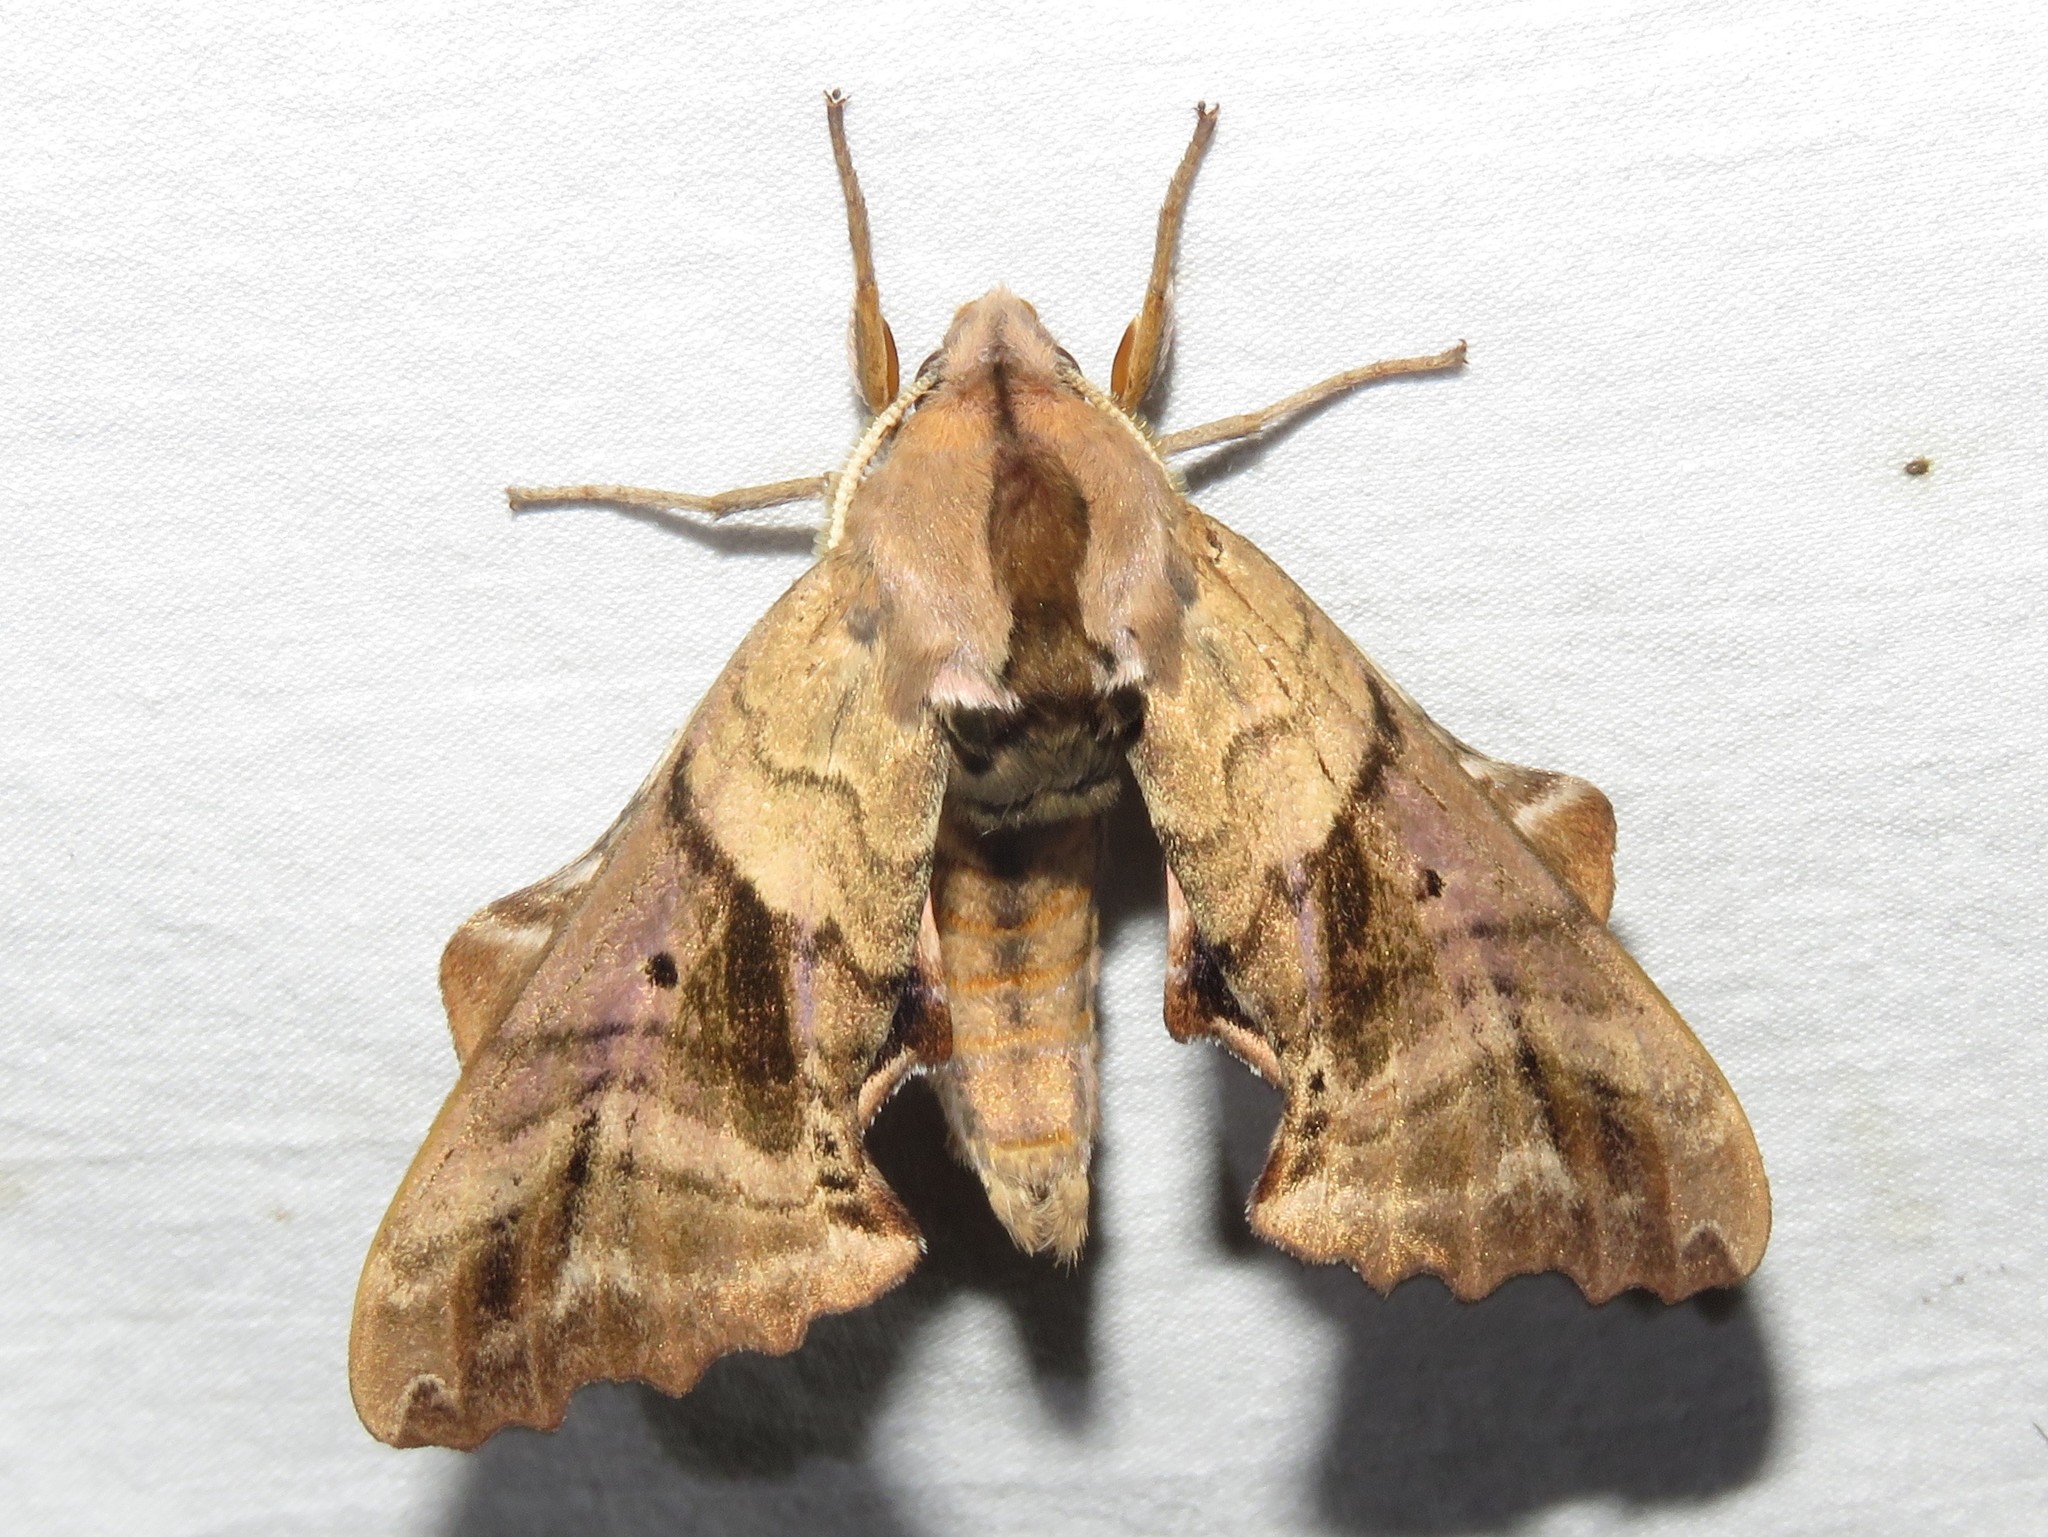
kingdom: Animalia
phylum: Arthropoda
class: Insecta
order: Lepidoptera
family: Sphingidae
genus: Paonias
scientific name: Paonias excaecata
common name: Blind-eyed sphinx
